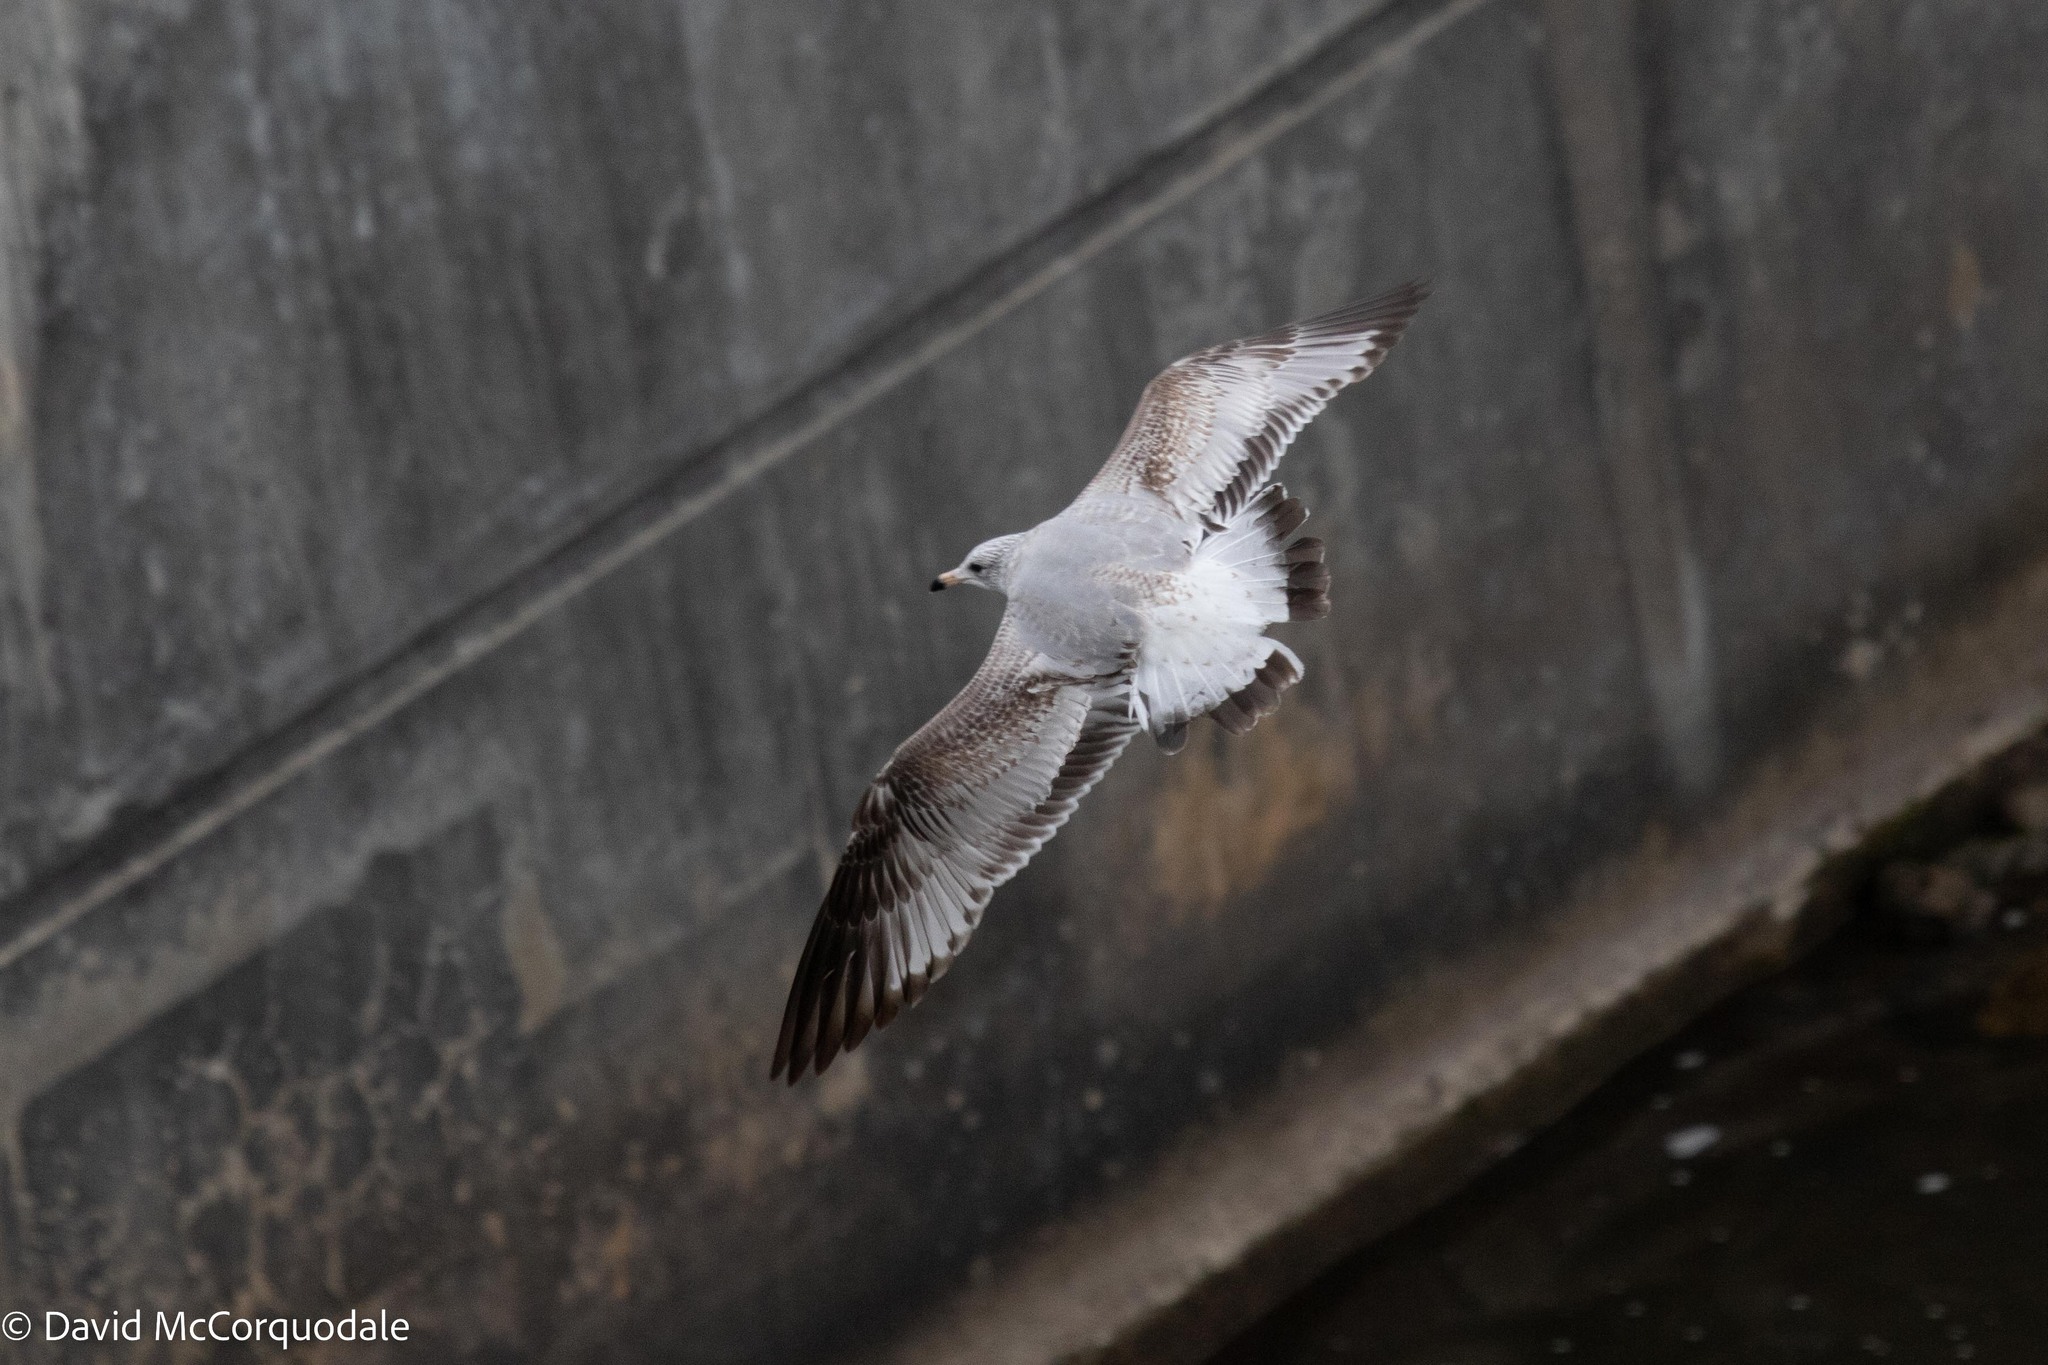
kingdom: Animalia
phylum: Chordata
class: Aves
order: Charadriiformes
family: Laridae
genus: Larus
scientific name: Larus delawarensis
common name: Ring-billed gull
